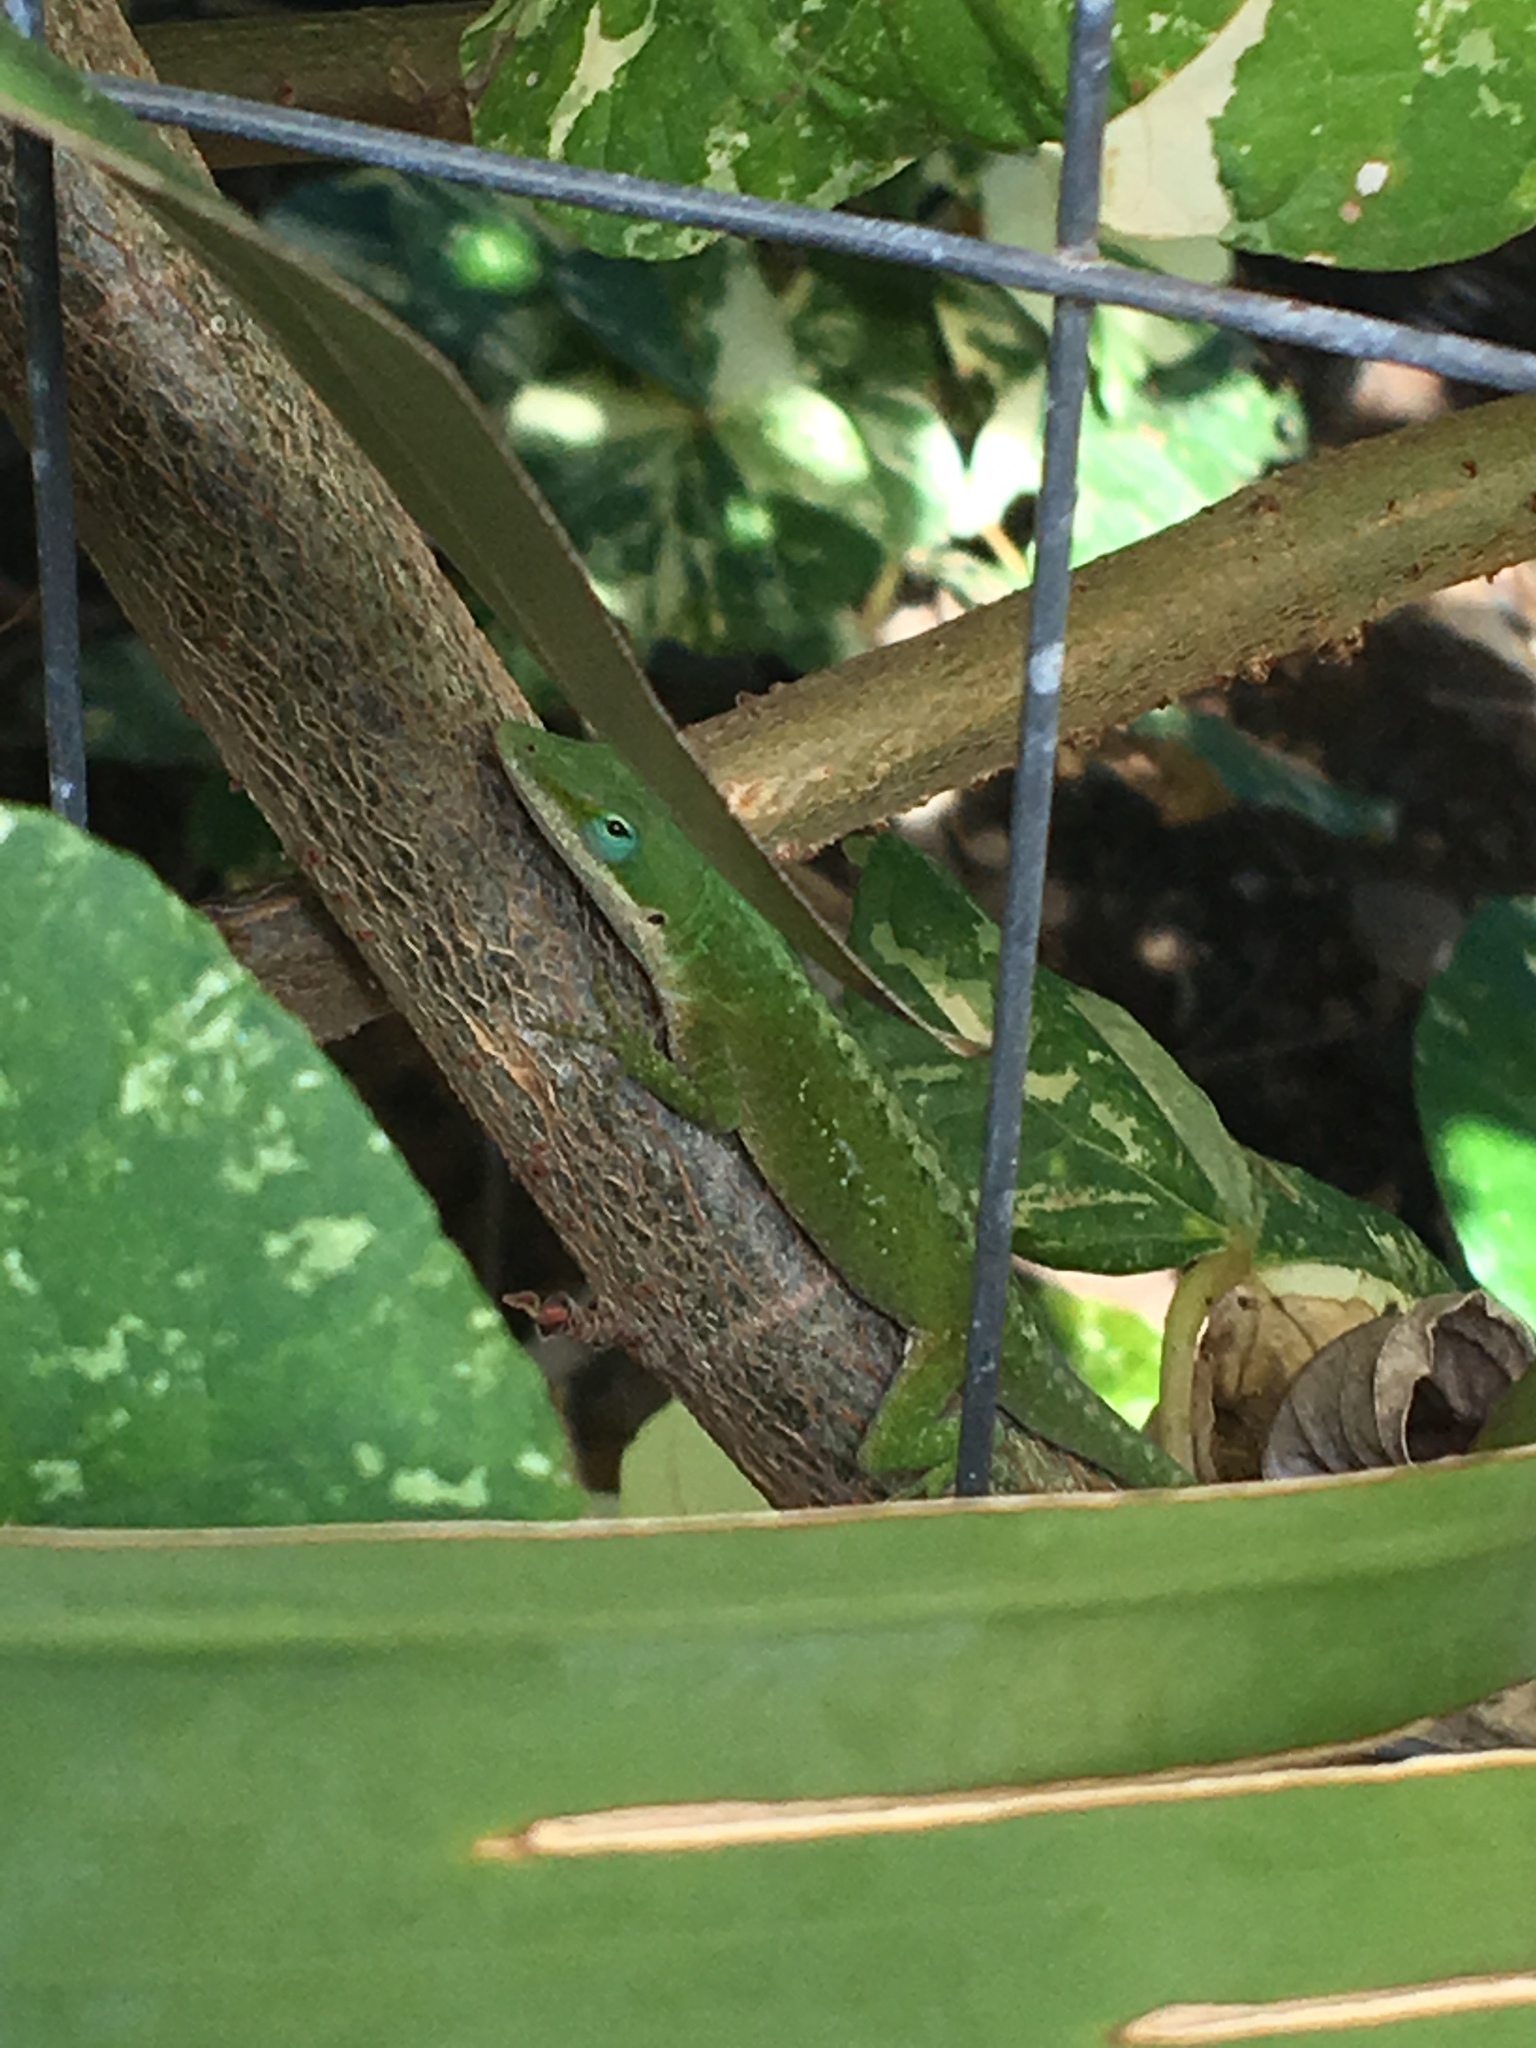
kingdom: Animalia
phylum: Chordata
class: Squamata
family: Dactyloidae
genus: Anolis
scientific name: Anolis carolinensis
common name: Green anole
